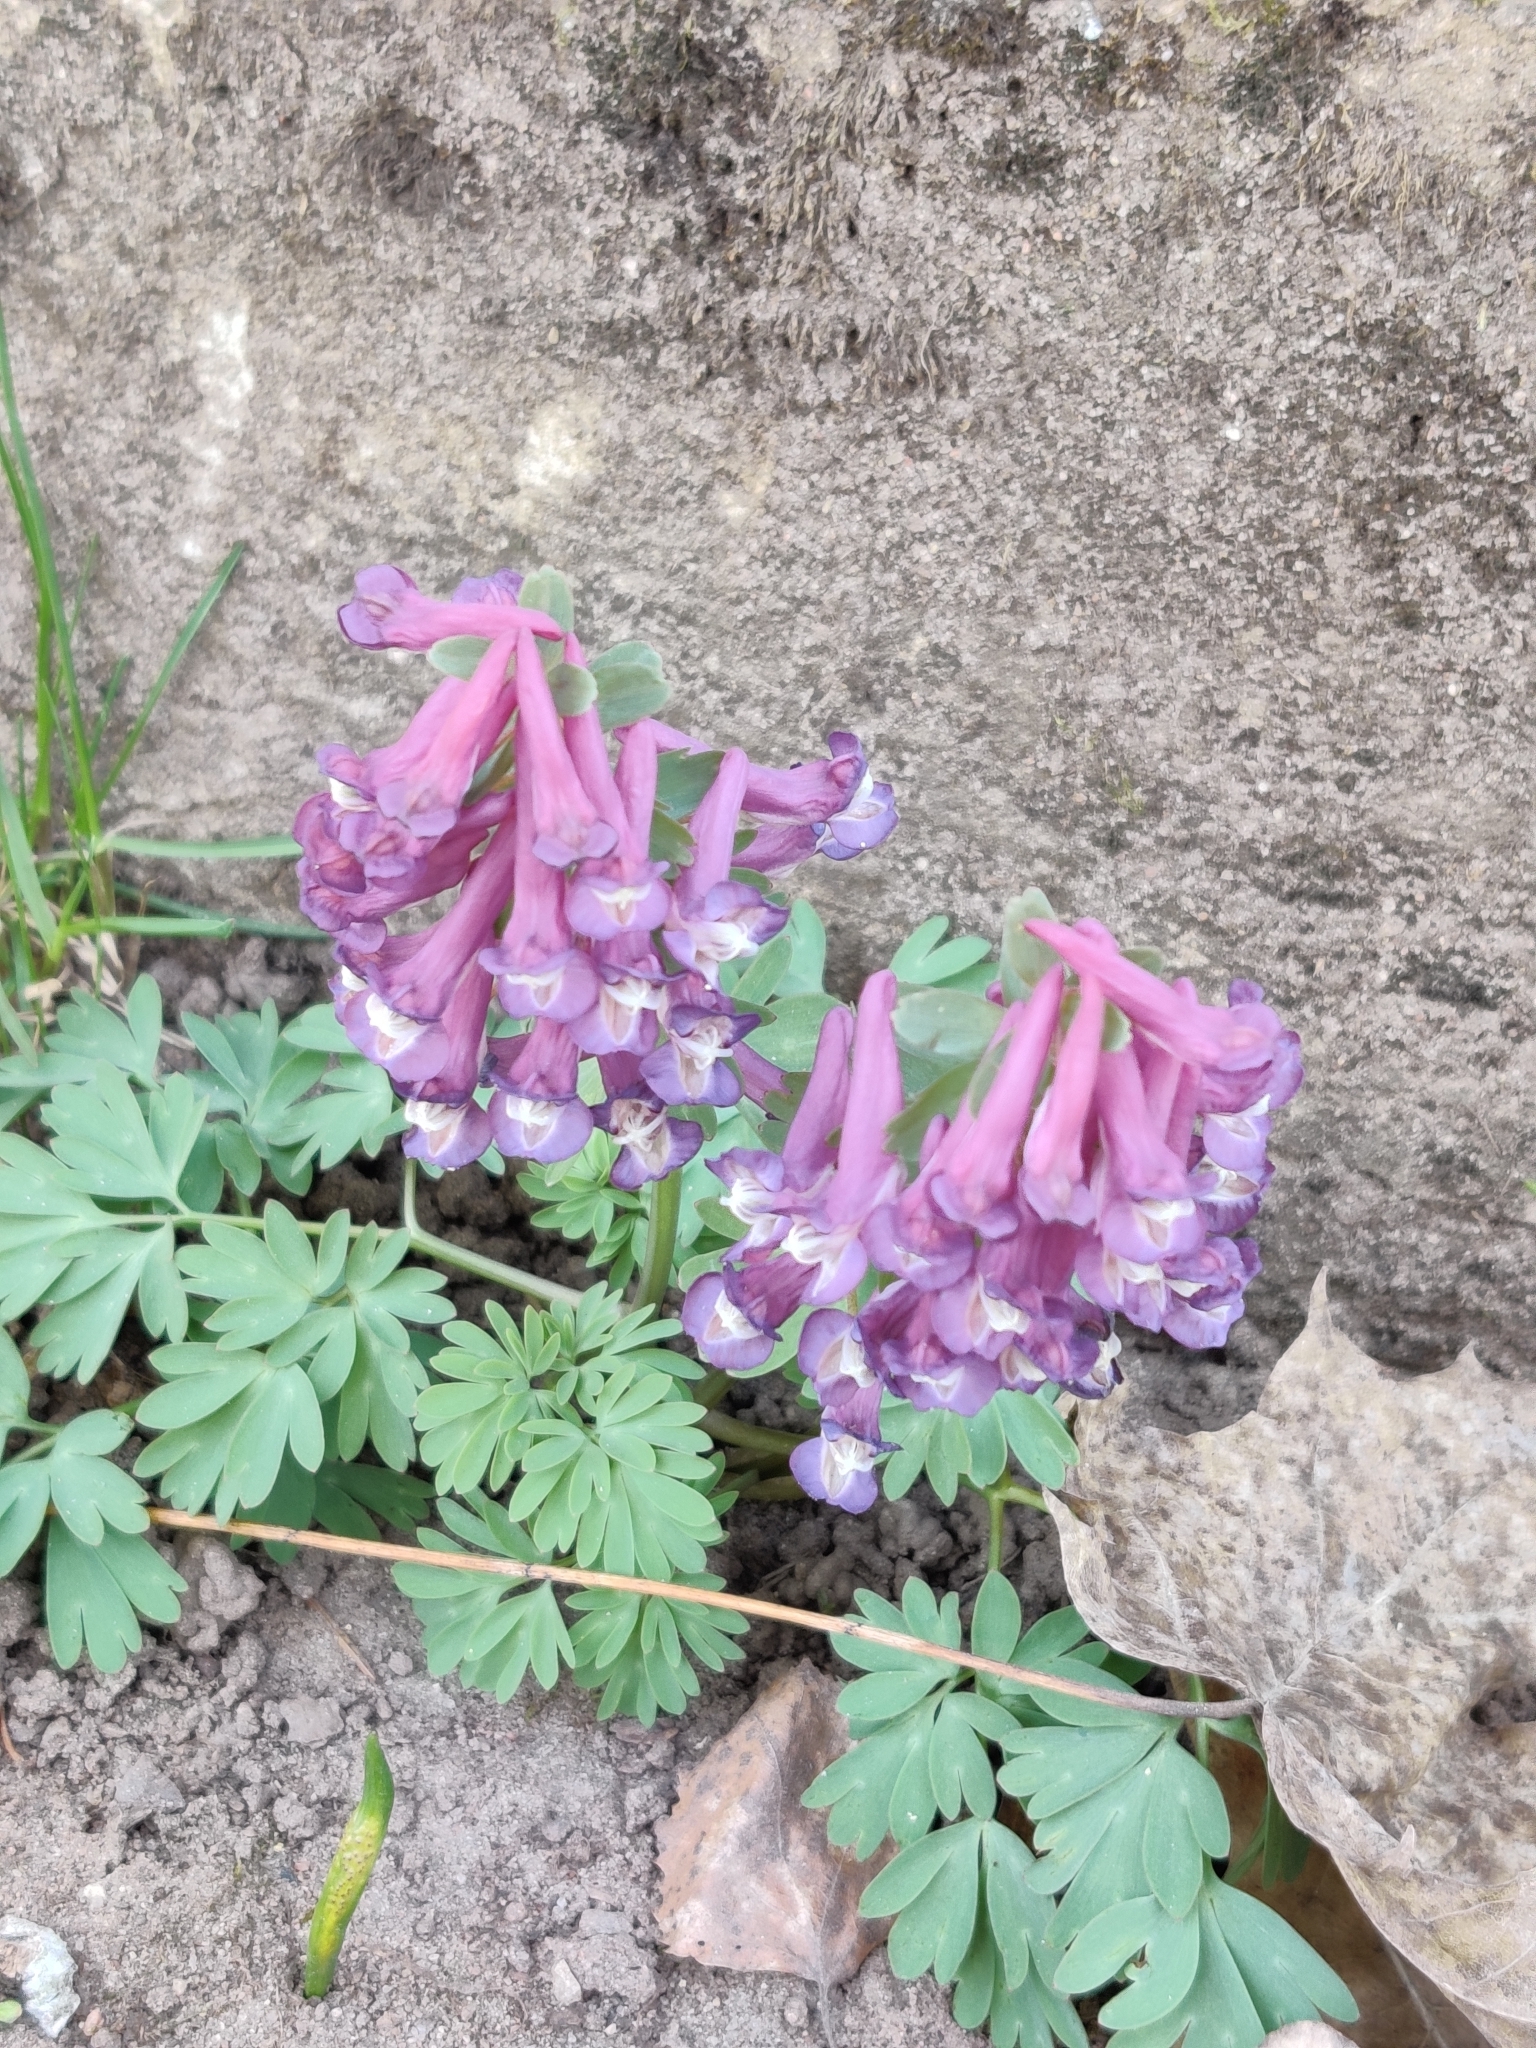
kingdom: Plantae
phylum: Tracheophyta
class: Magnoliopsida
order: Ranunculales
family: Papaveraceae
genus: Corydalis
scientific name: Corydalis solida
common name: Bird-in-a-bush
